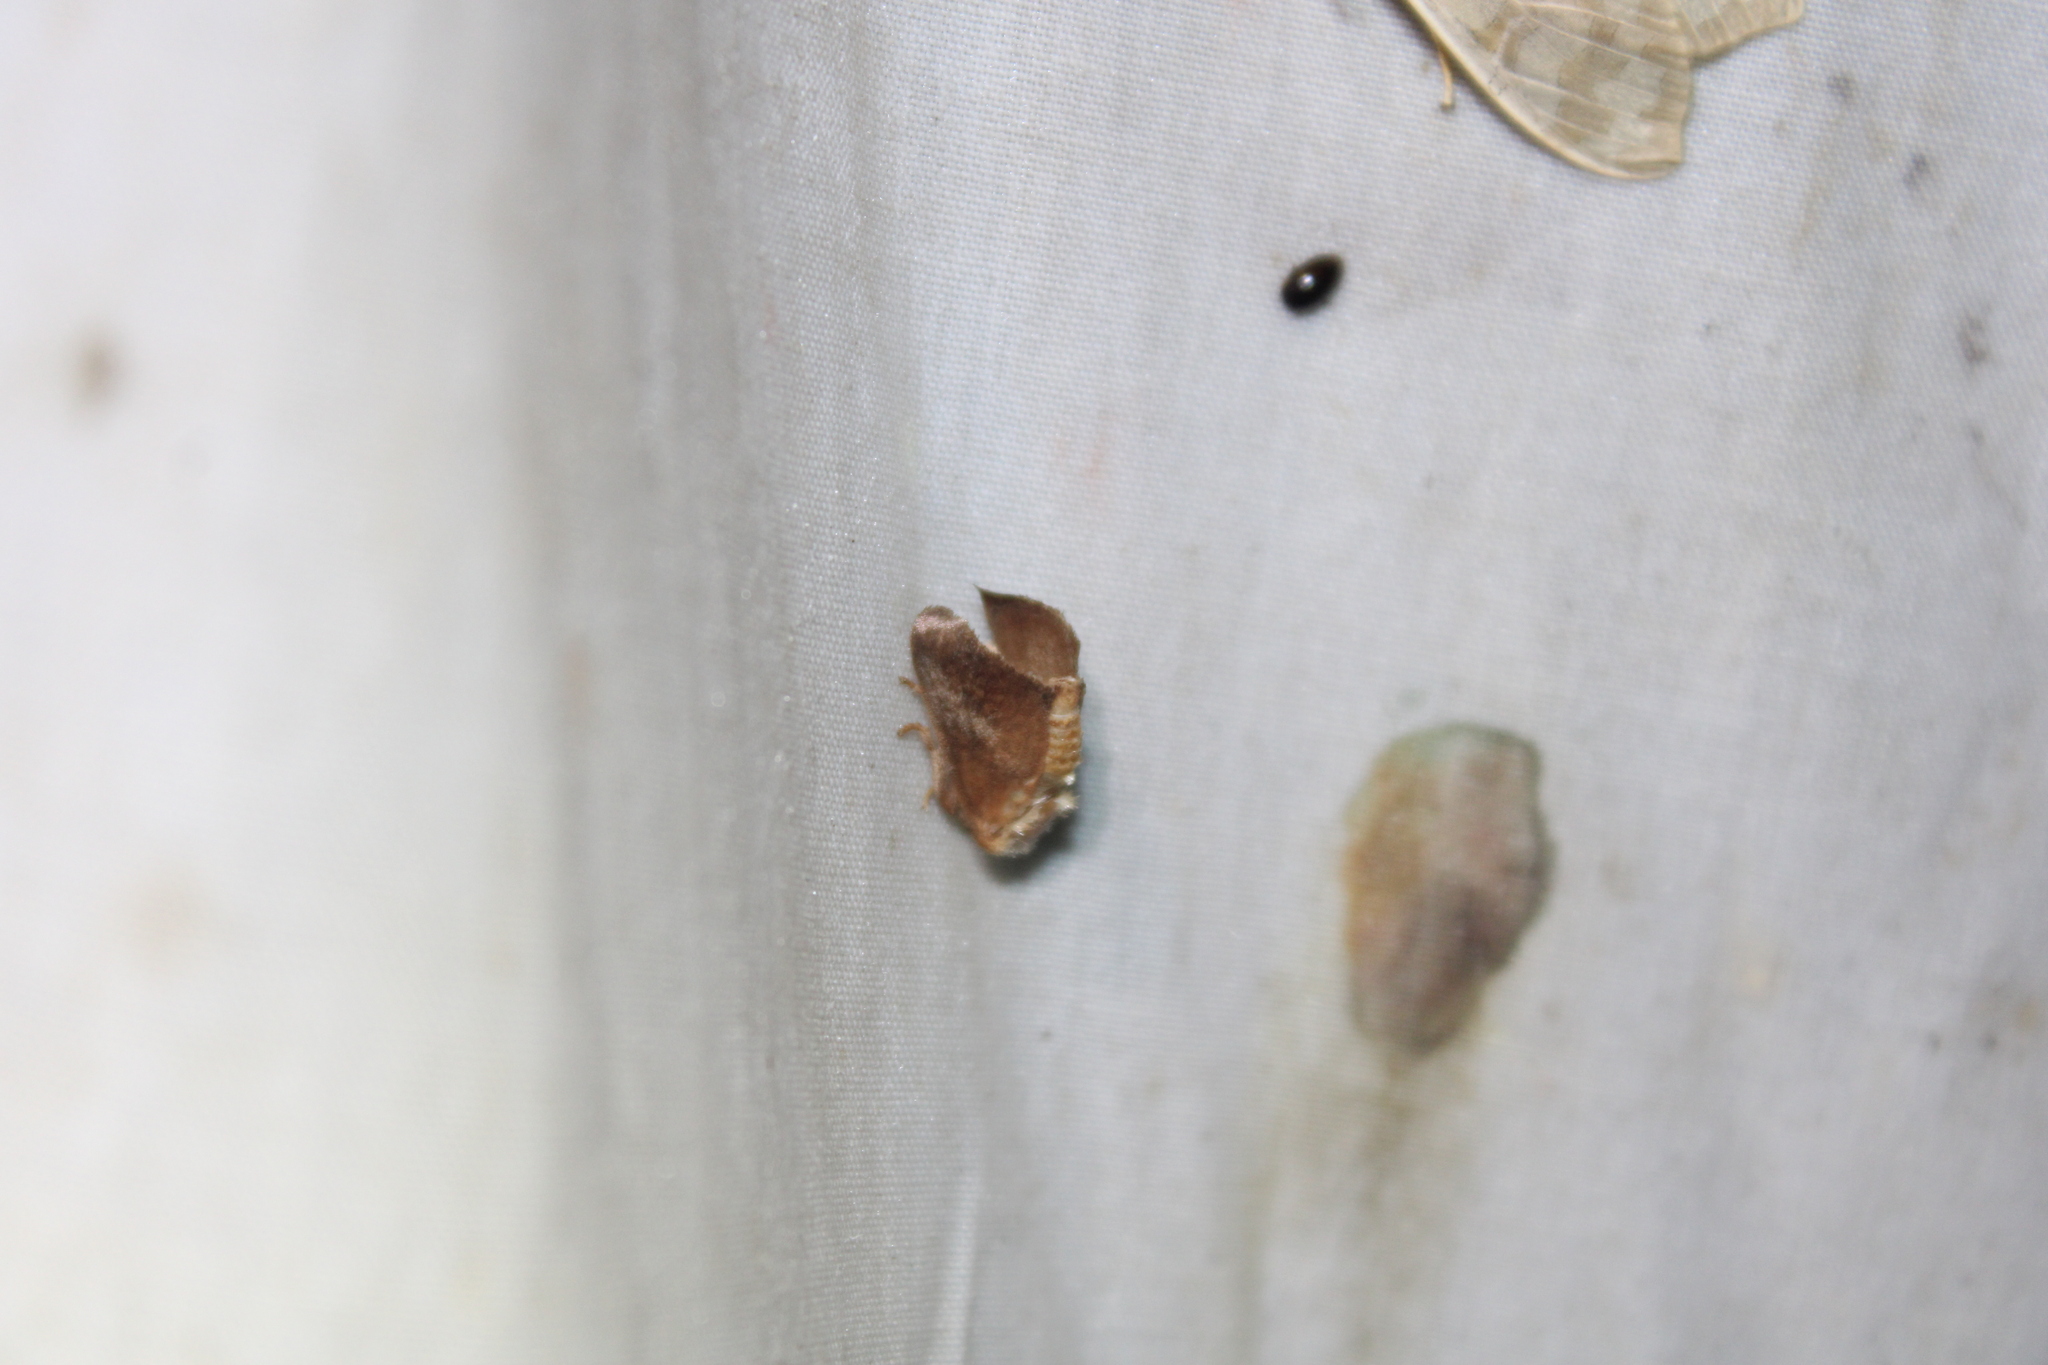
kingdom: Animalia
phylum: Arthropoda
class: Insecta
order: Lepidoptera
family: Limacodidae
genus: Isa
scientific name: Isa textula
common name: Crowned slug moth
